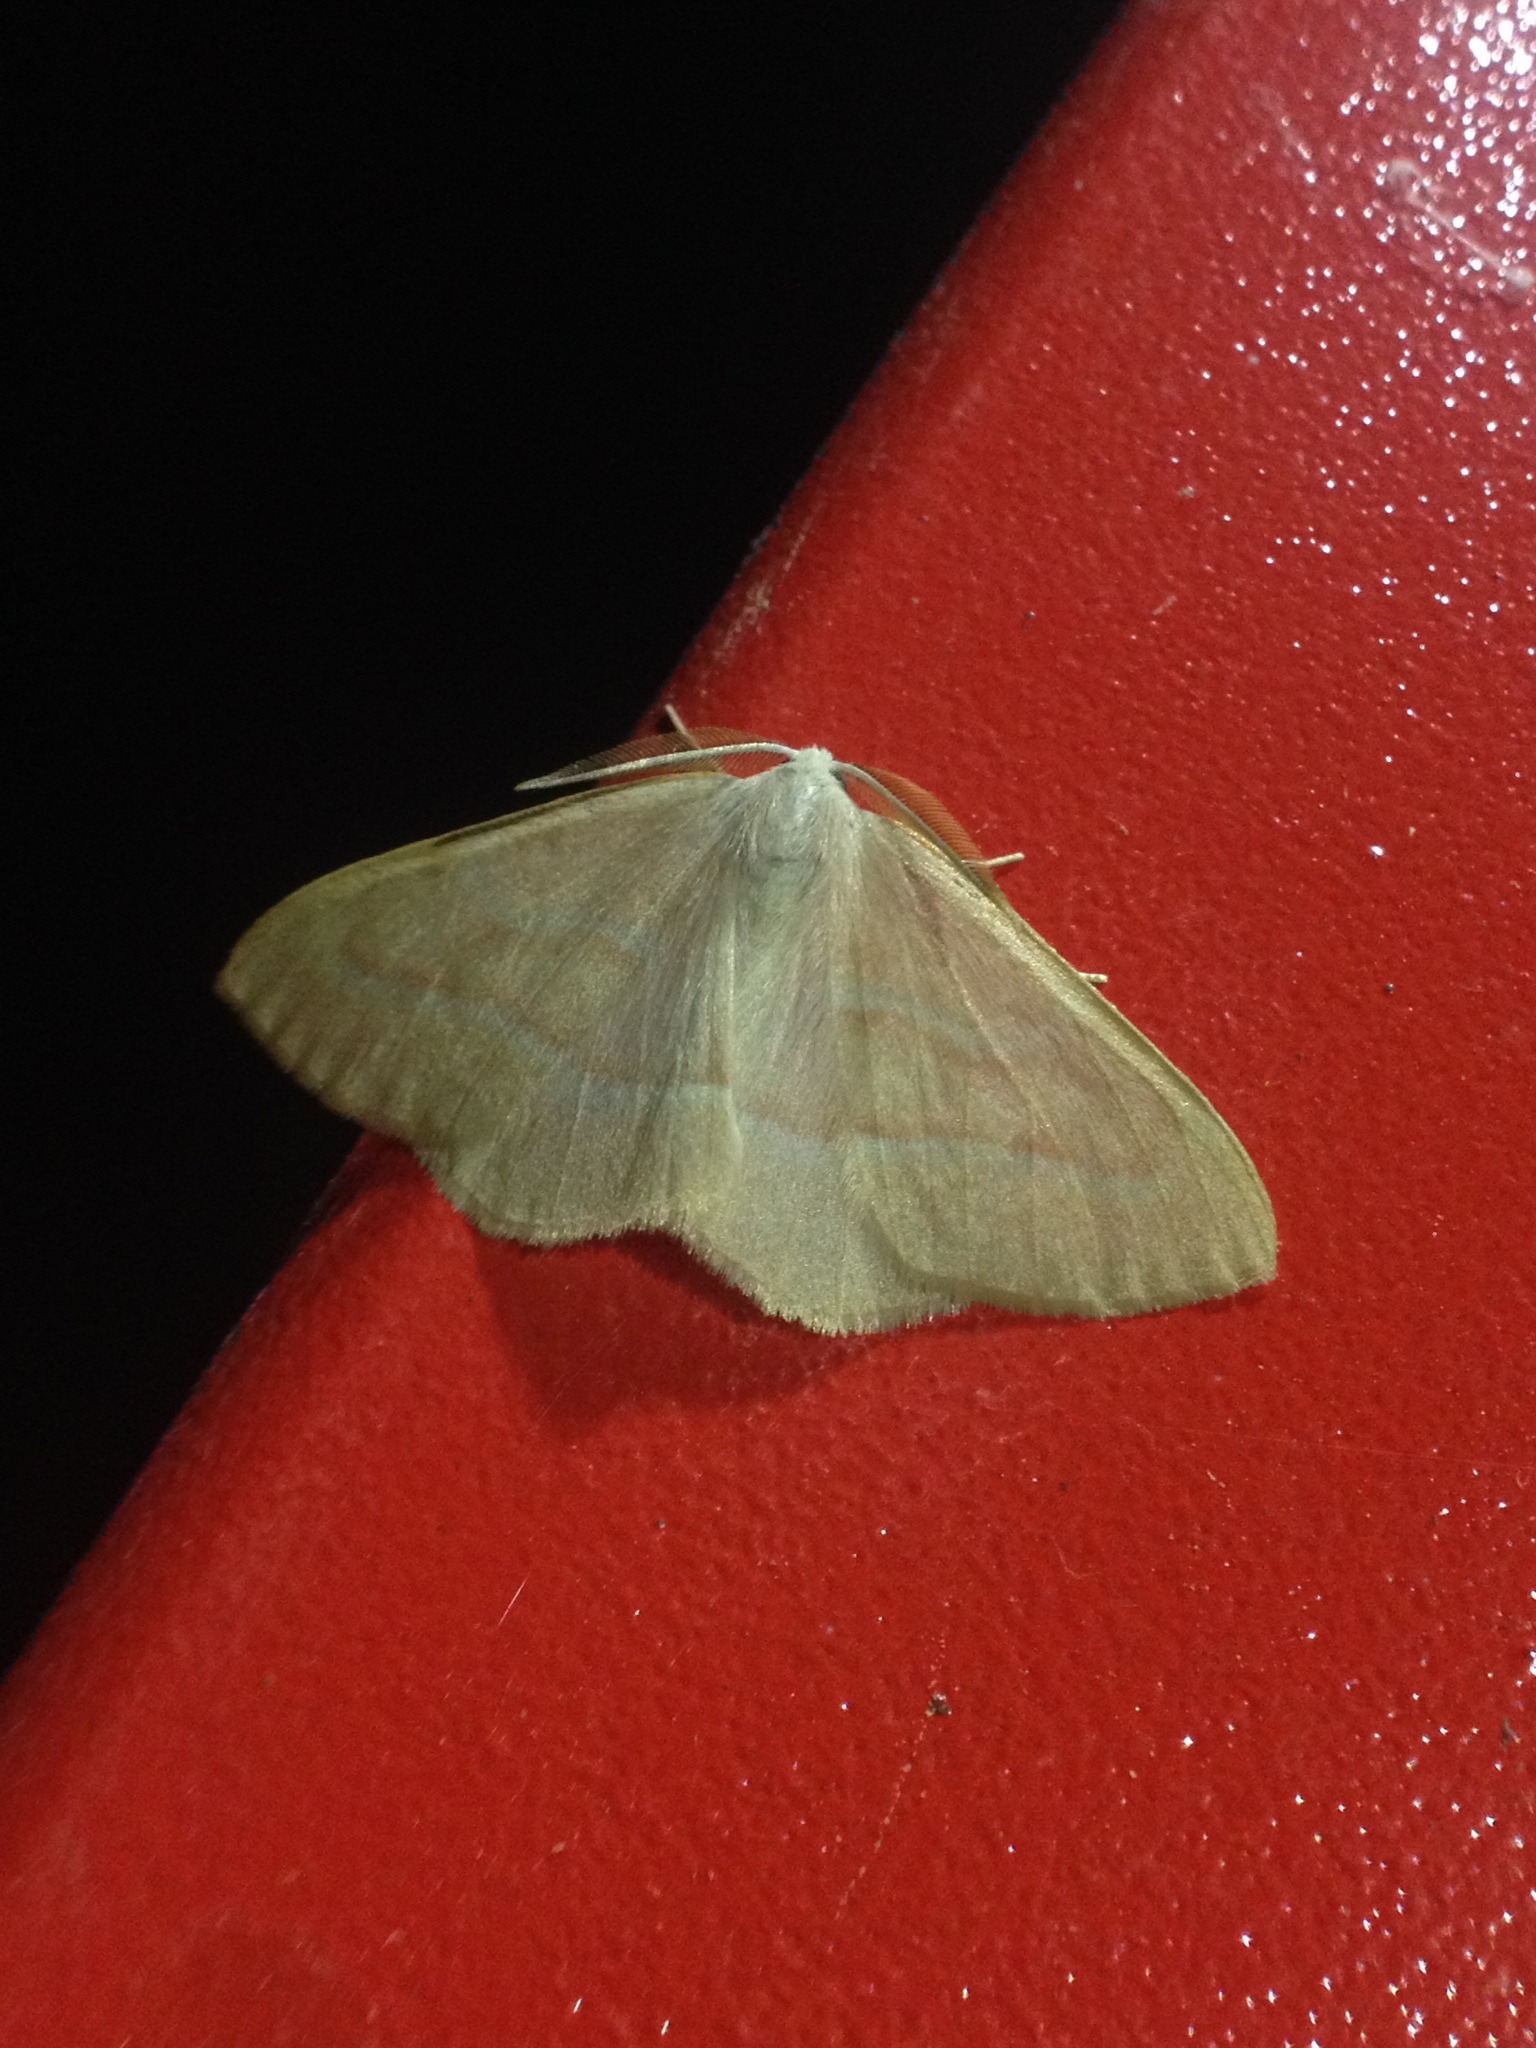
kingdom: Animalia
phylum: Arthropoda
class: Insecta
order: Lepidoptera
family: Geometridae
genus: Hylaea
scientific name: Hylaea fasciaria
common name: Barred red
